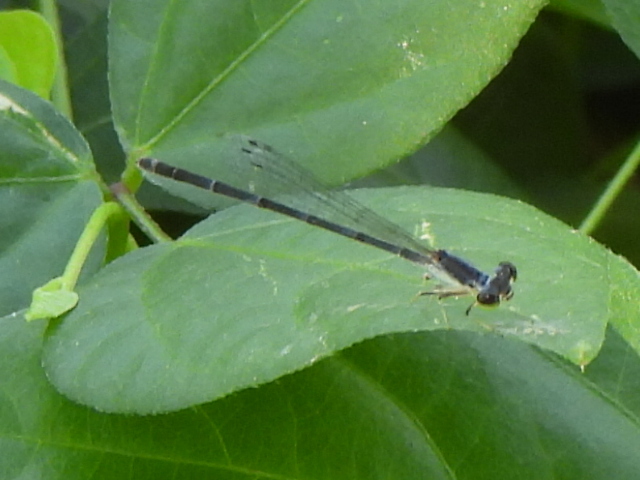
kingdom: Animalia
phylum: Arthropoda
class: Insecta
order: Odonata
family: Coenagrionidae
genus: Ischnura
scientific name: Ischnura posita
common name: Fragile forktail
